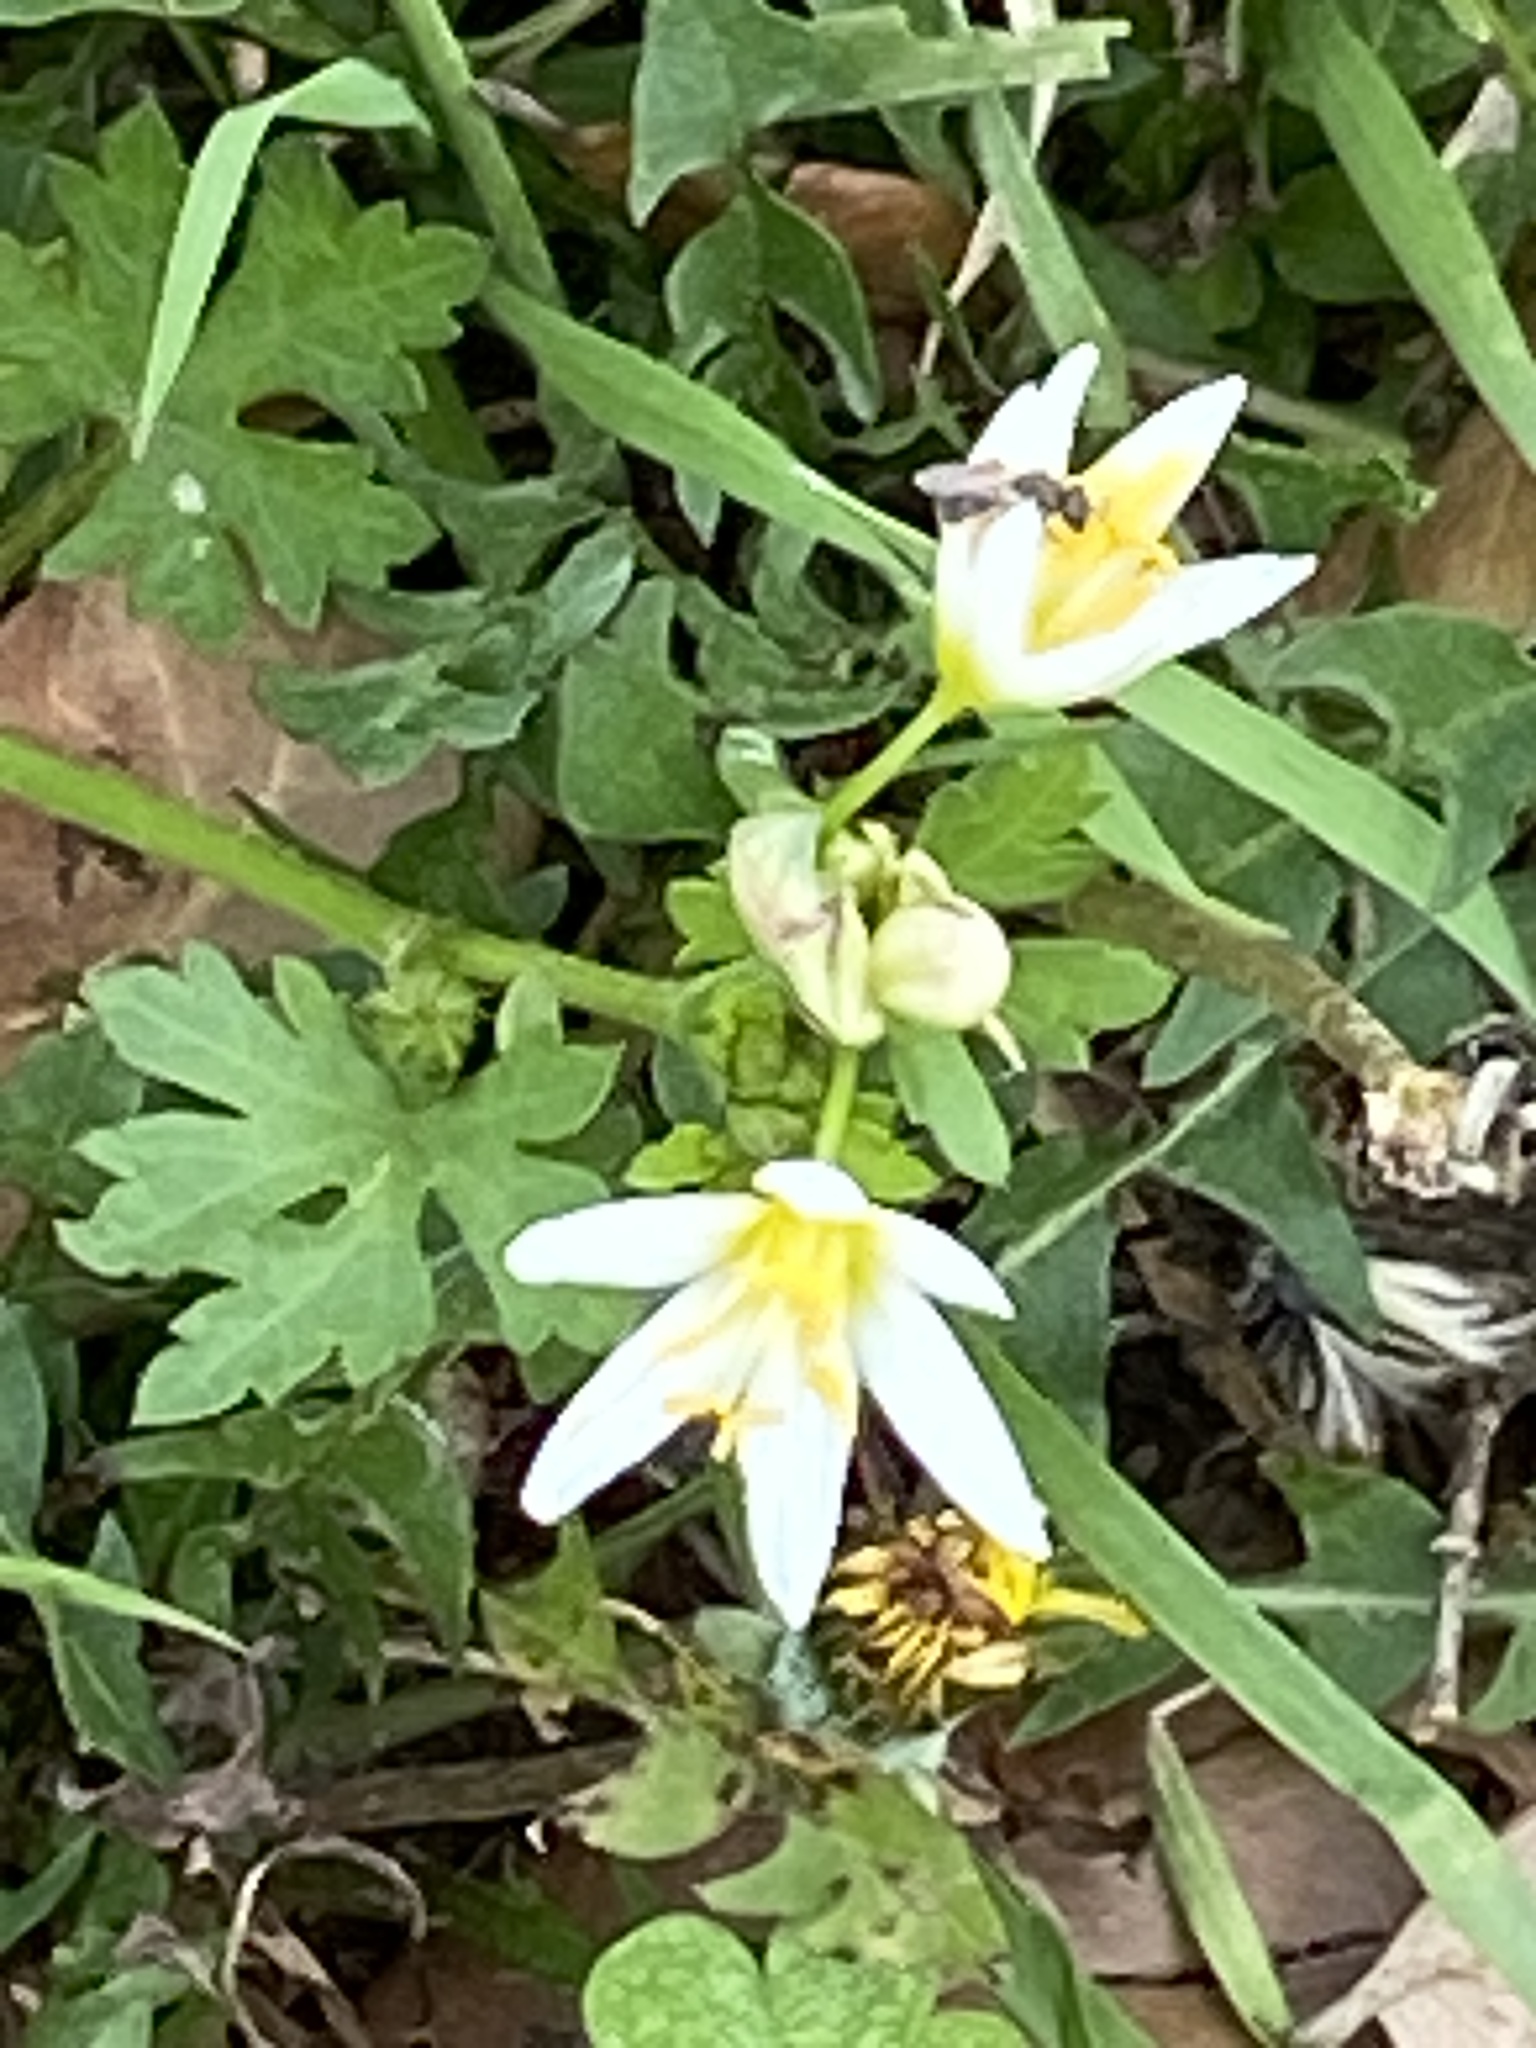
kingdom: Plantae
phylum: Tracheophyta
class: Liliopsida
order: Asparagales
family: Amaryllidaceae
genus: Nothoscordum
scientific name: Nothoscordum bivalve
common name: Crow-poison
